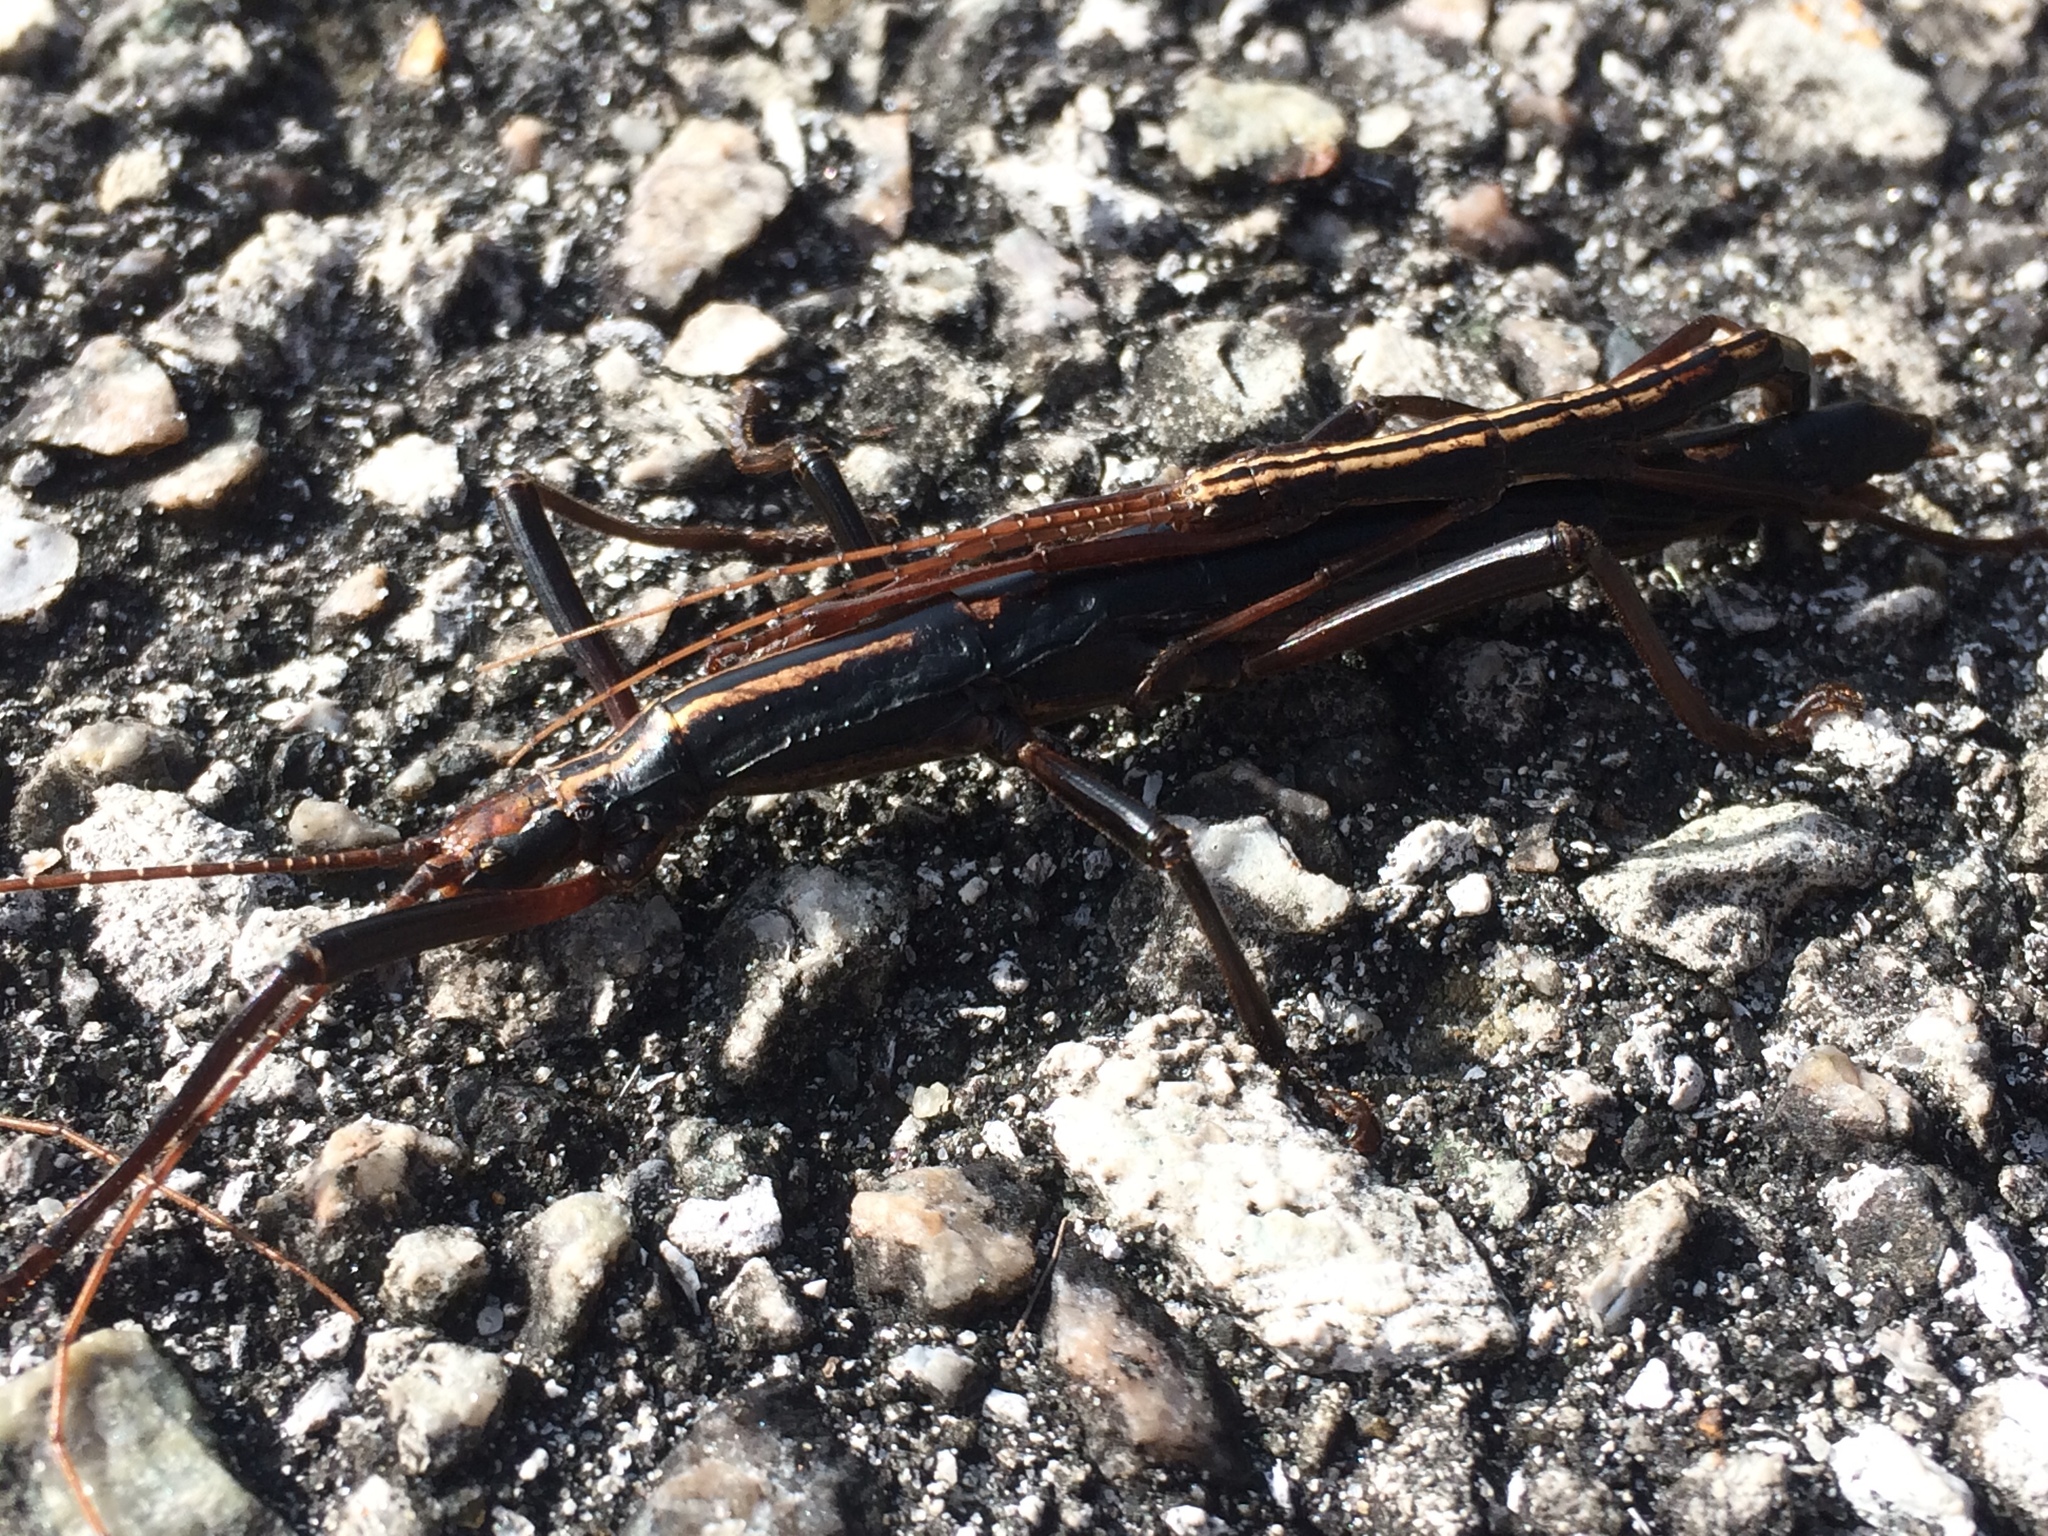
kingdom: Animalia
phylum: Arthropoda
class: Insecta
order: Phasmida
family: Pseudophasmatidae
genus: Anisomorpha
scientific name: Anisomorpha buprestoides
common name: Florida stick insect
